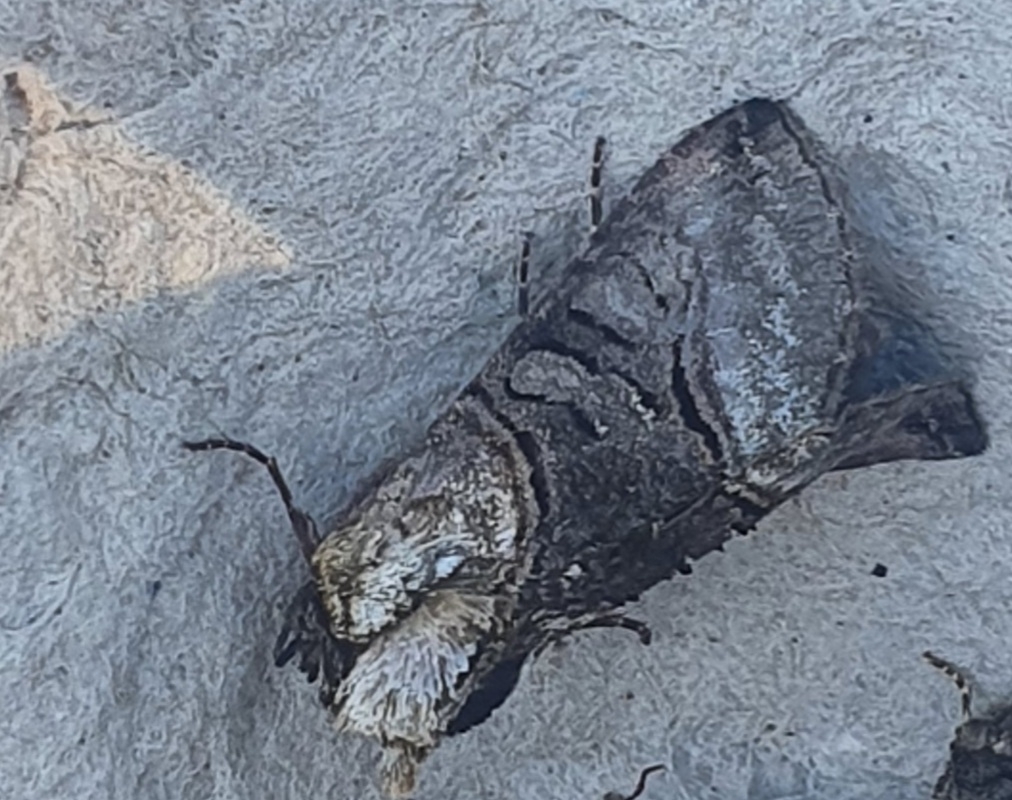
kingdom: Animalia
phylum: Arthropoda
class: Insecta
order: Lepidoptera
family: Noctuidae
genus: Abrostola
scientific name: Abrostola tripartita
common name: Spectacle
